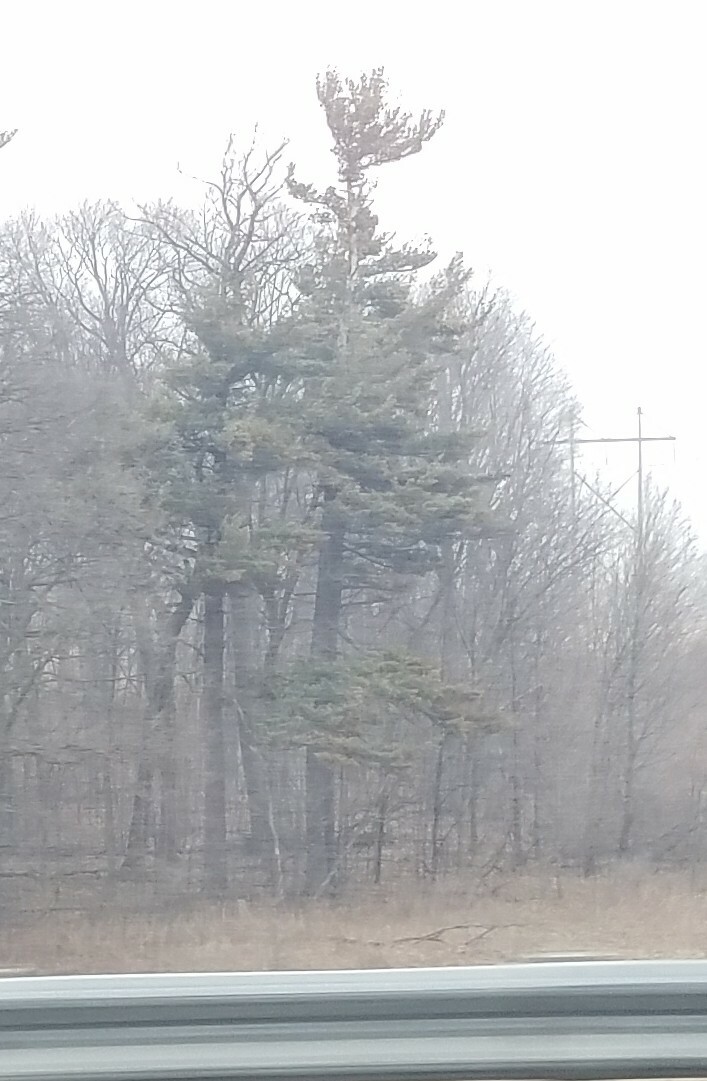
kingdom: Plantae
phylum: Tracheophyta
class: Pinopsida
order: Pinales
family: Pinaceae
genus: Pinus
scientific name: Pinus strobus
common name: Weymouth pine
